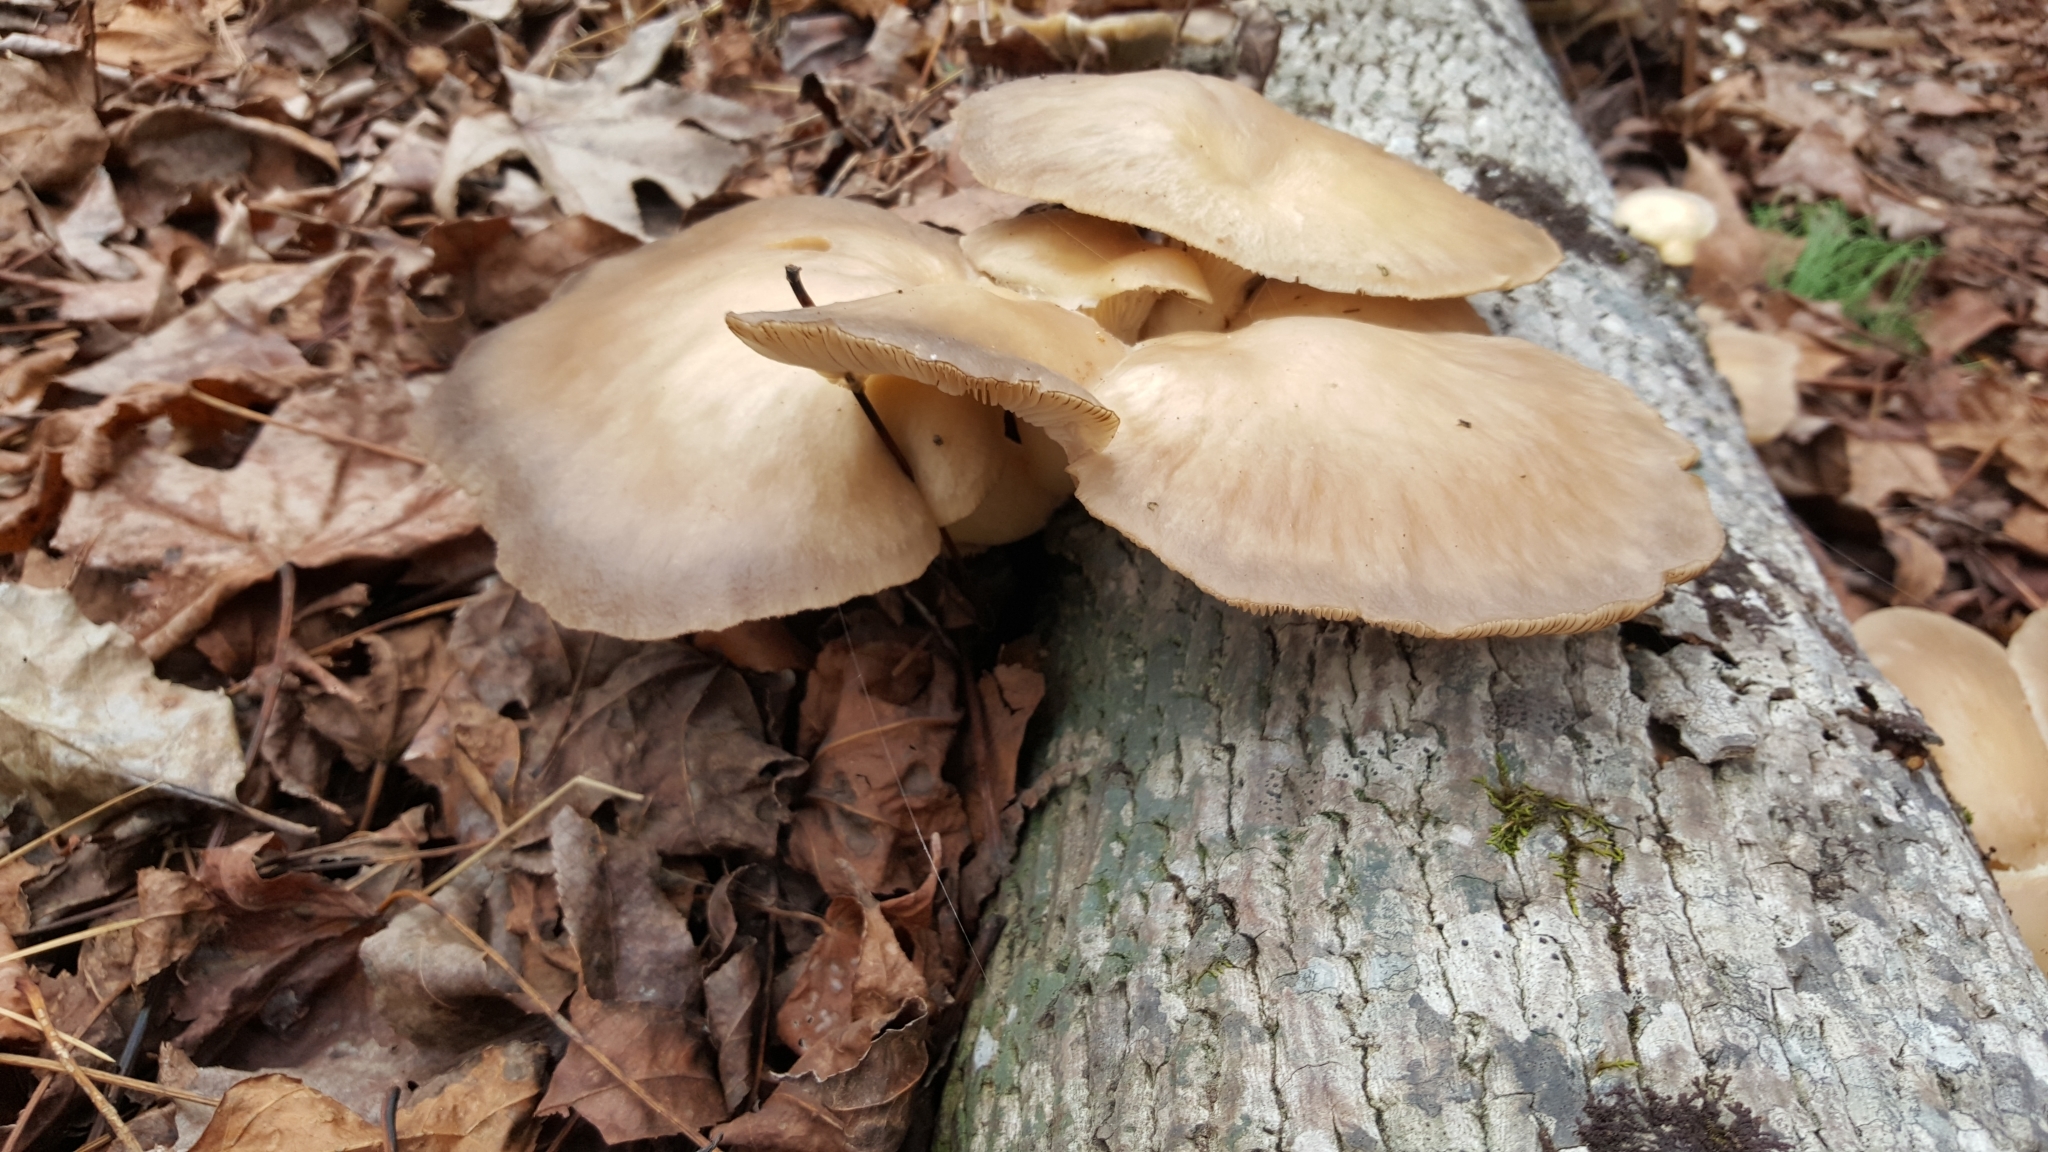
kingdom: Fungi
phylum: Basidiomycota
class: Agaricomycetes
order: Agaricales
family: Pleurotaceae
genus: Pleurotus
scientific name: Pleurotus ostreatus
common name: Oyster mushroom
